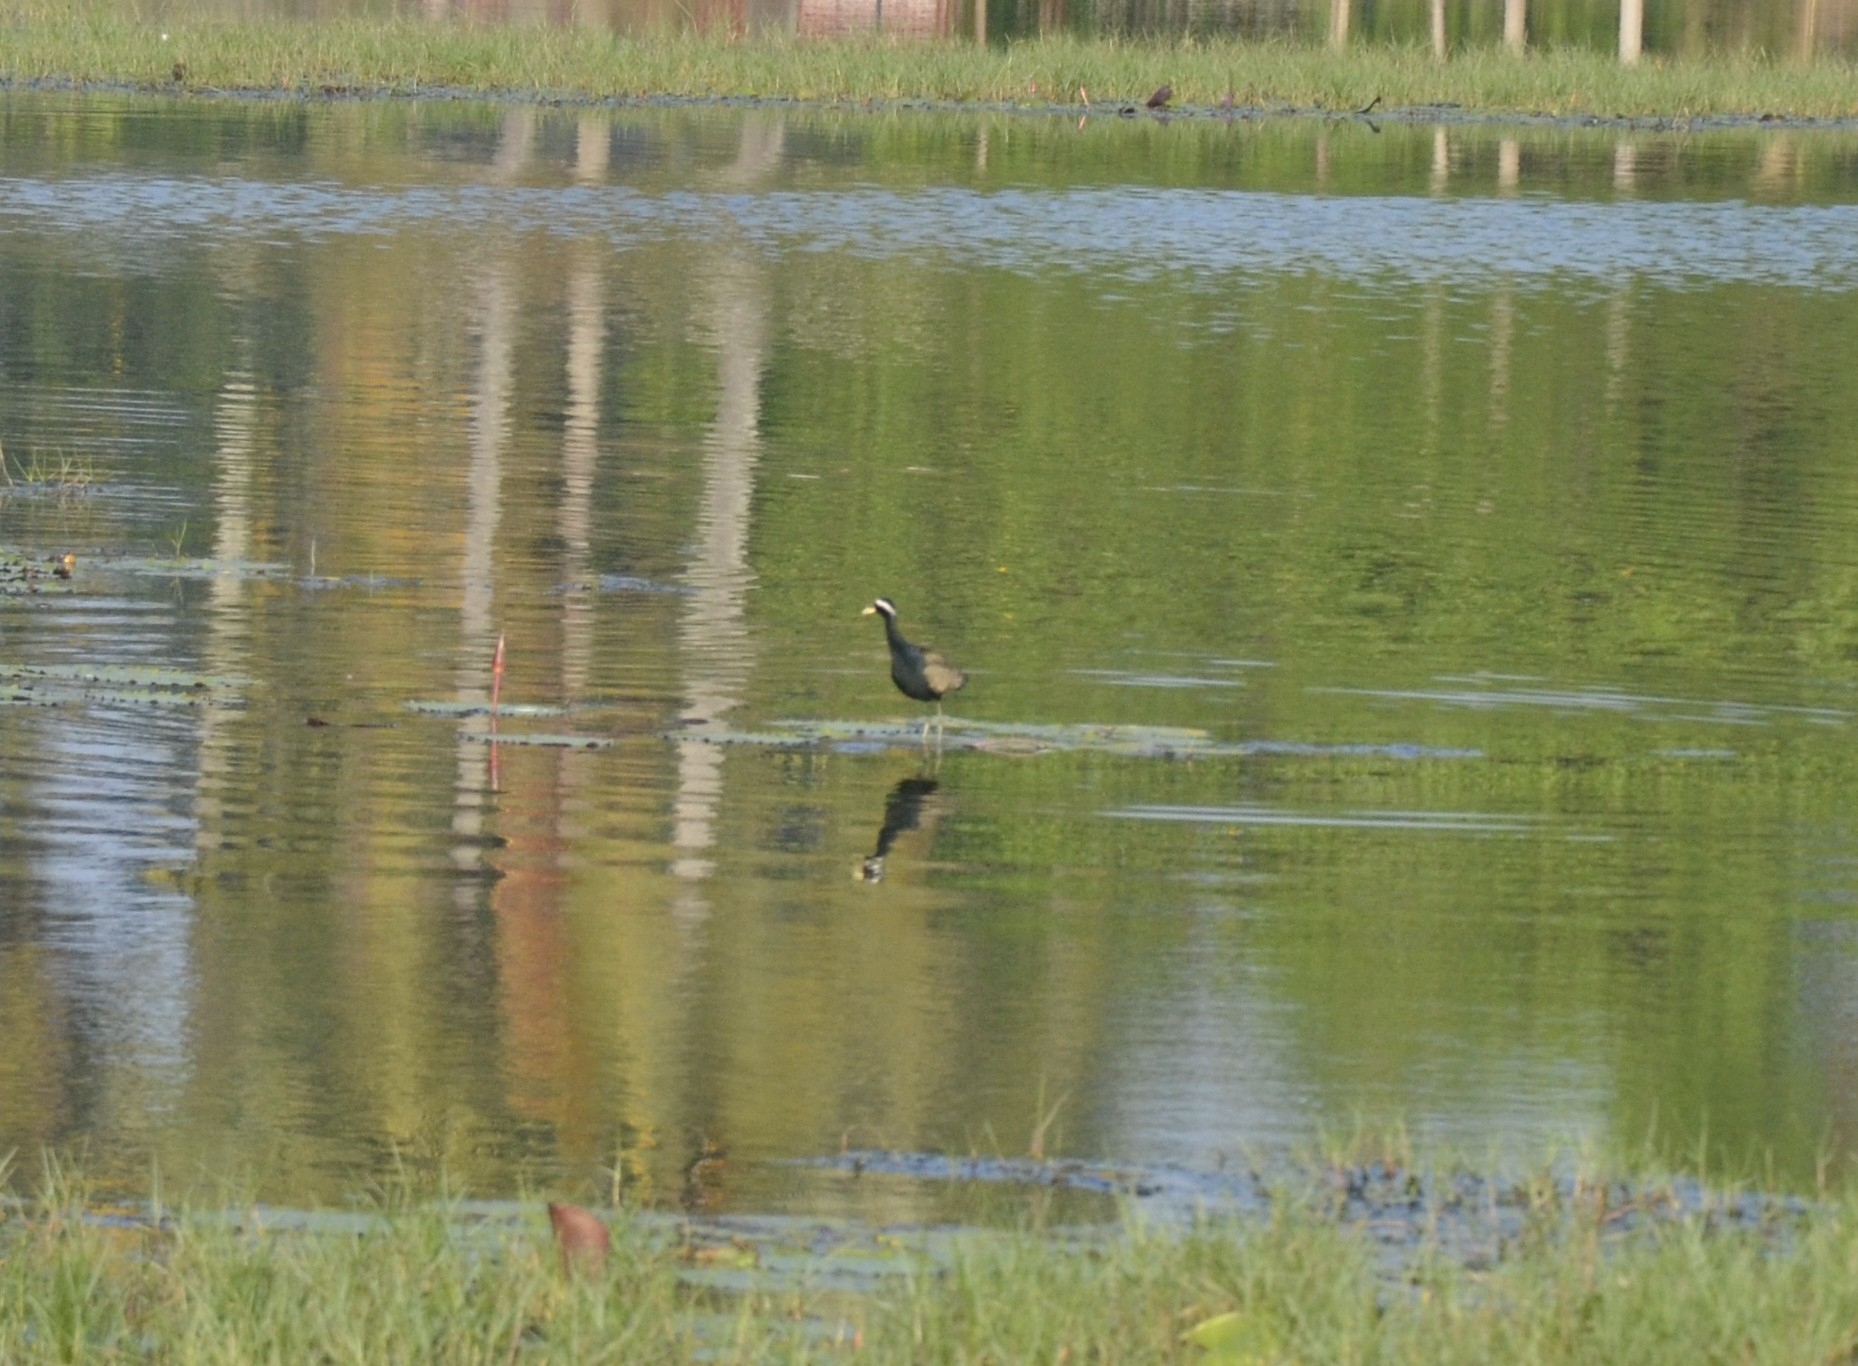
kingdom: Animalia
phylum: Chordata
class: Aves
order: Charadriiformes
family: Jacanidae
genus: Metopidius
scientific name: Metopidius indicus
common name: Bronze-winged jacana
